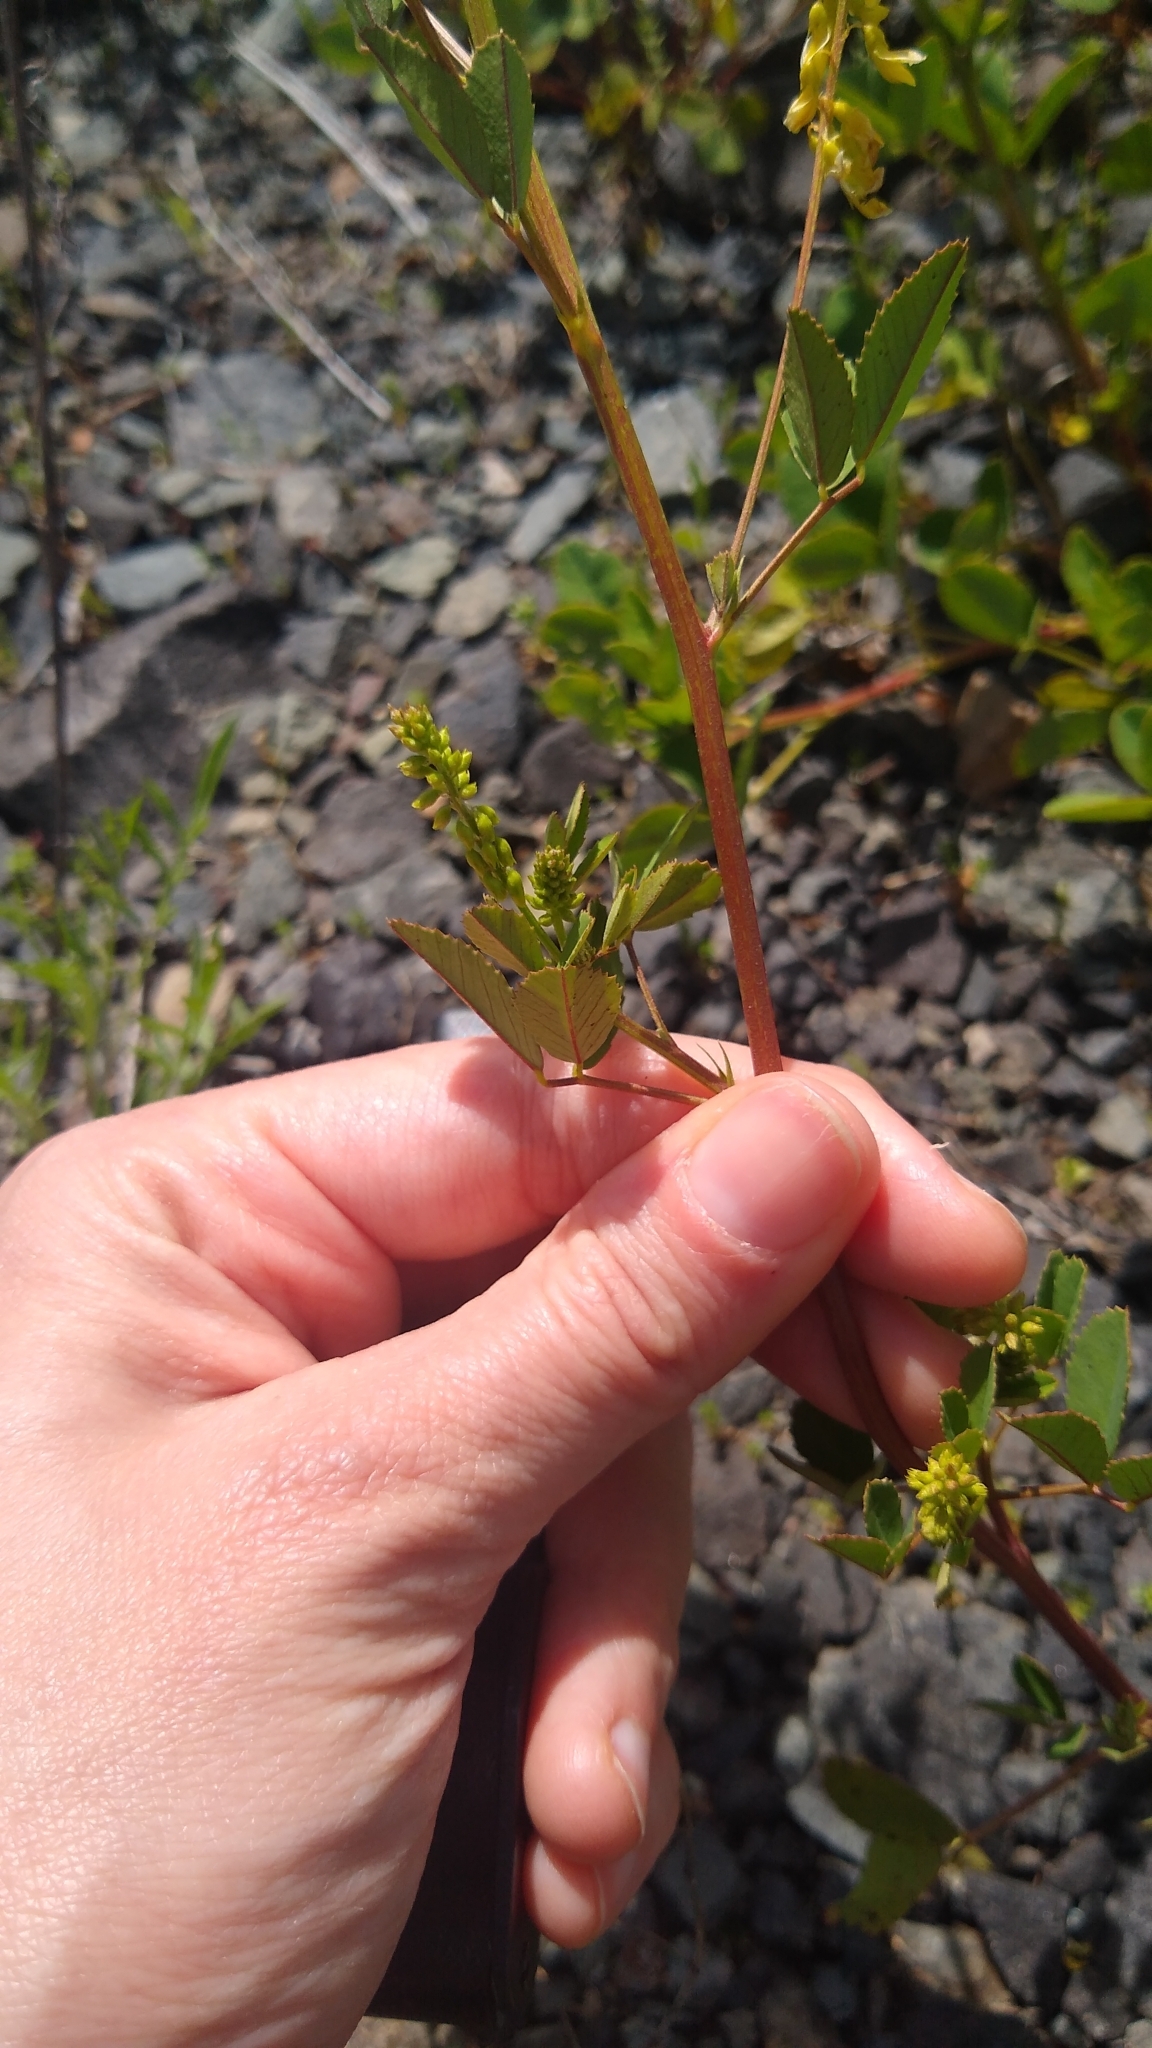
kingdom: Plantae
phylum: Tracheophyta
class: Magnoliopsida
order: Fabales
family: Fabaceae
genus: Melilotus
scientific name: Melilotus officinalis
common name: Sweetclover
